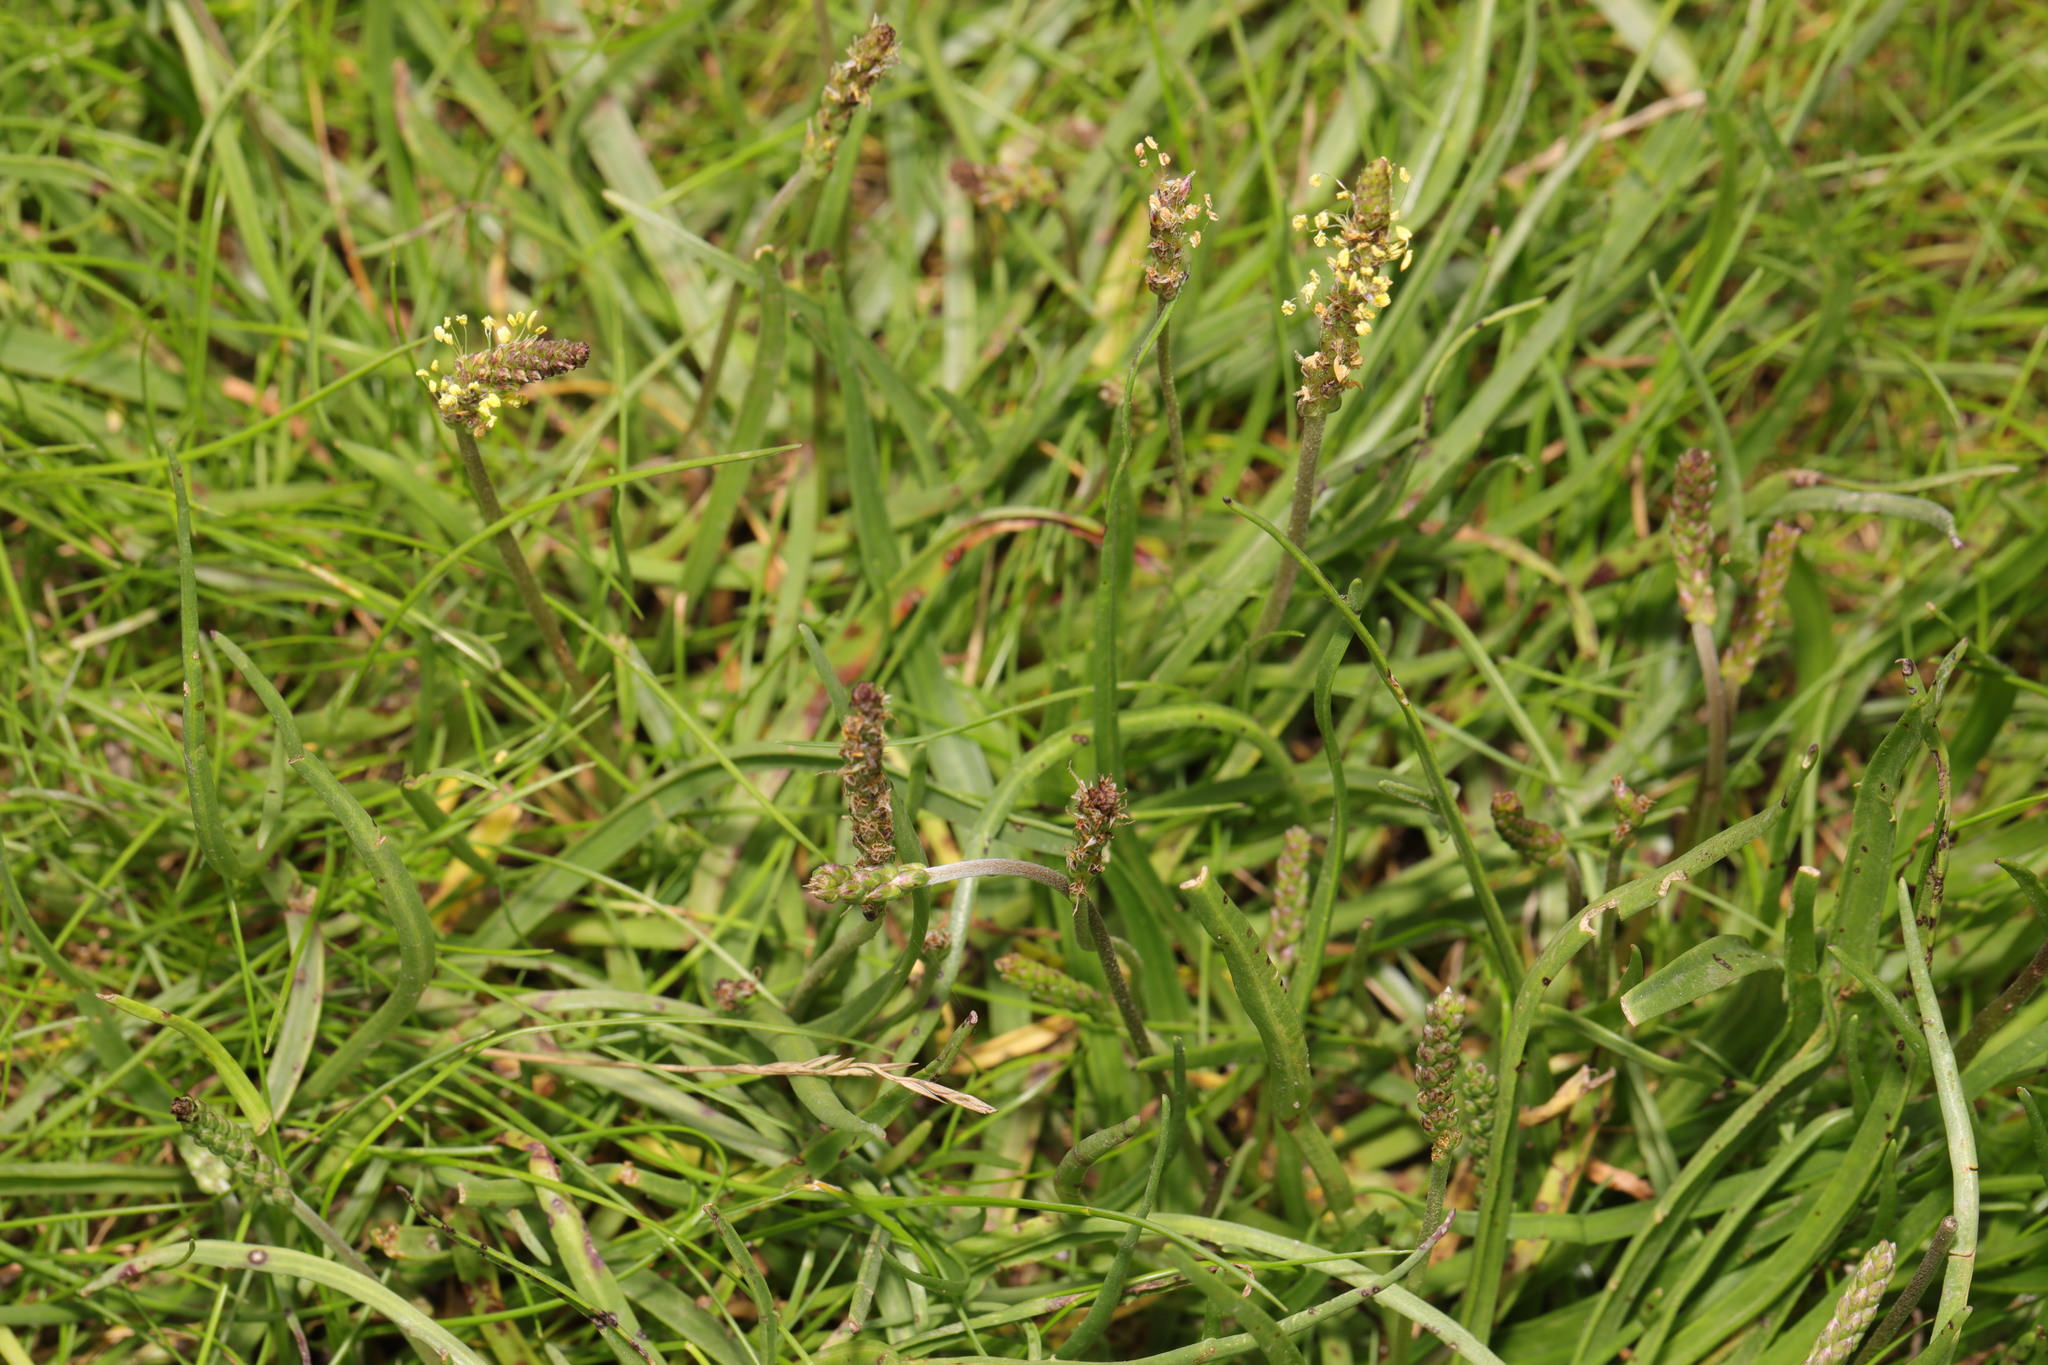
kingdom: Plantae
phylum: Tracheophyta
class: Magnoliopsida
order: Lamiales
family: Plantaginaceae
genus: Plantago
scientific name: Plantago maritima
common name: Sea plantain
